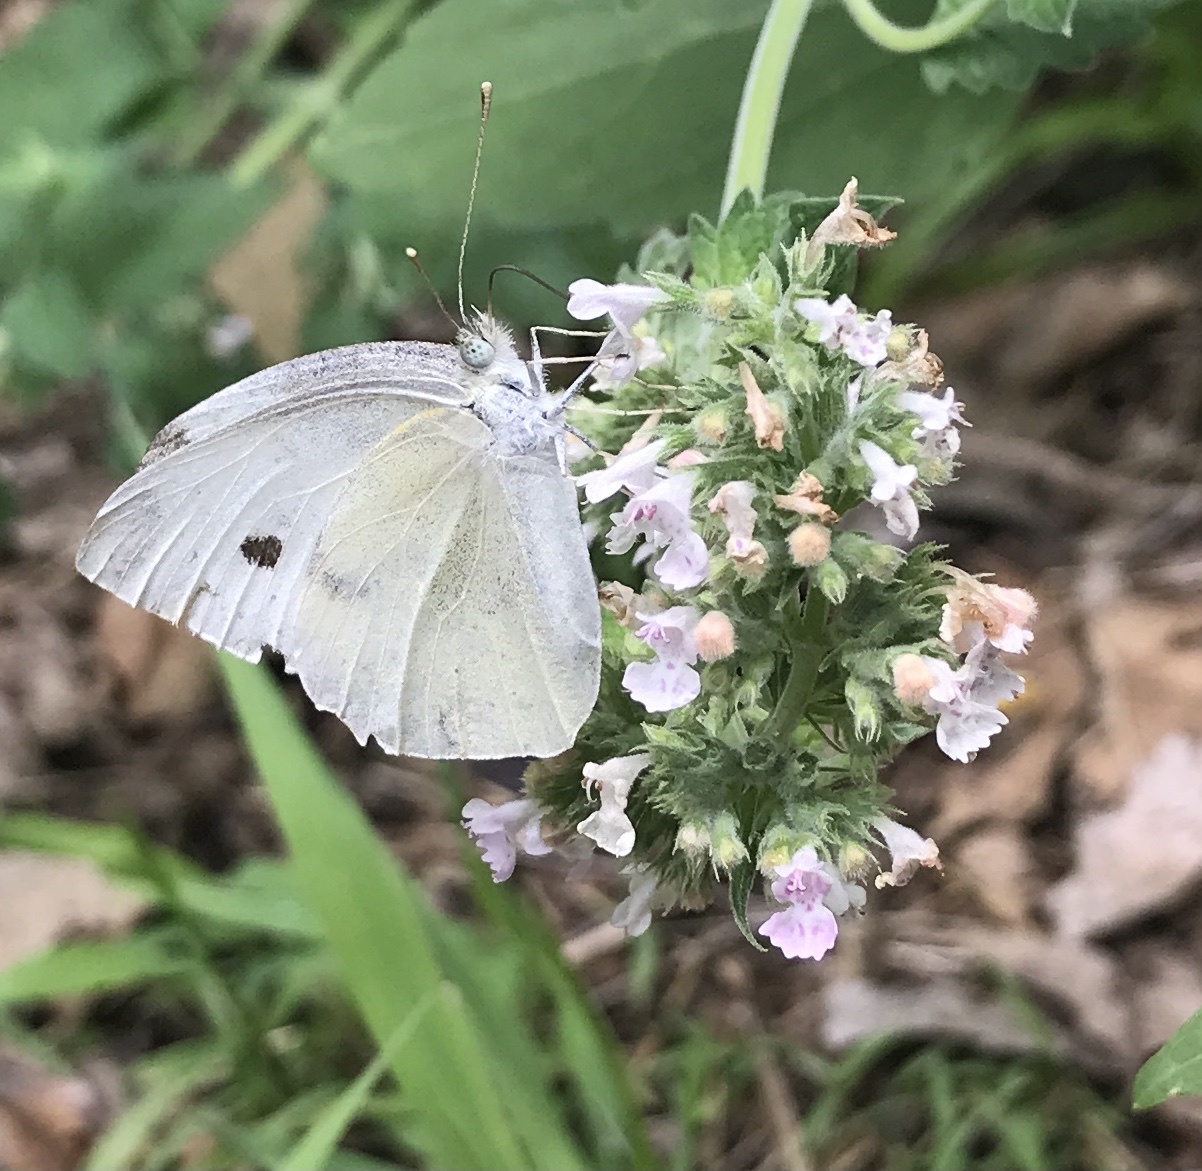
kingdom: Plantae
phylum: Tracheophyta
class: Magnoliopsida
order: Lamiales
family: Lamiaceae
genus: Nepeta
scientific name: Nepeta cataria
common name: Catnip
